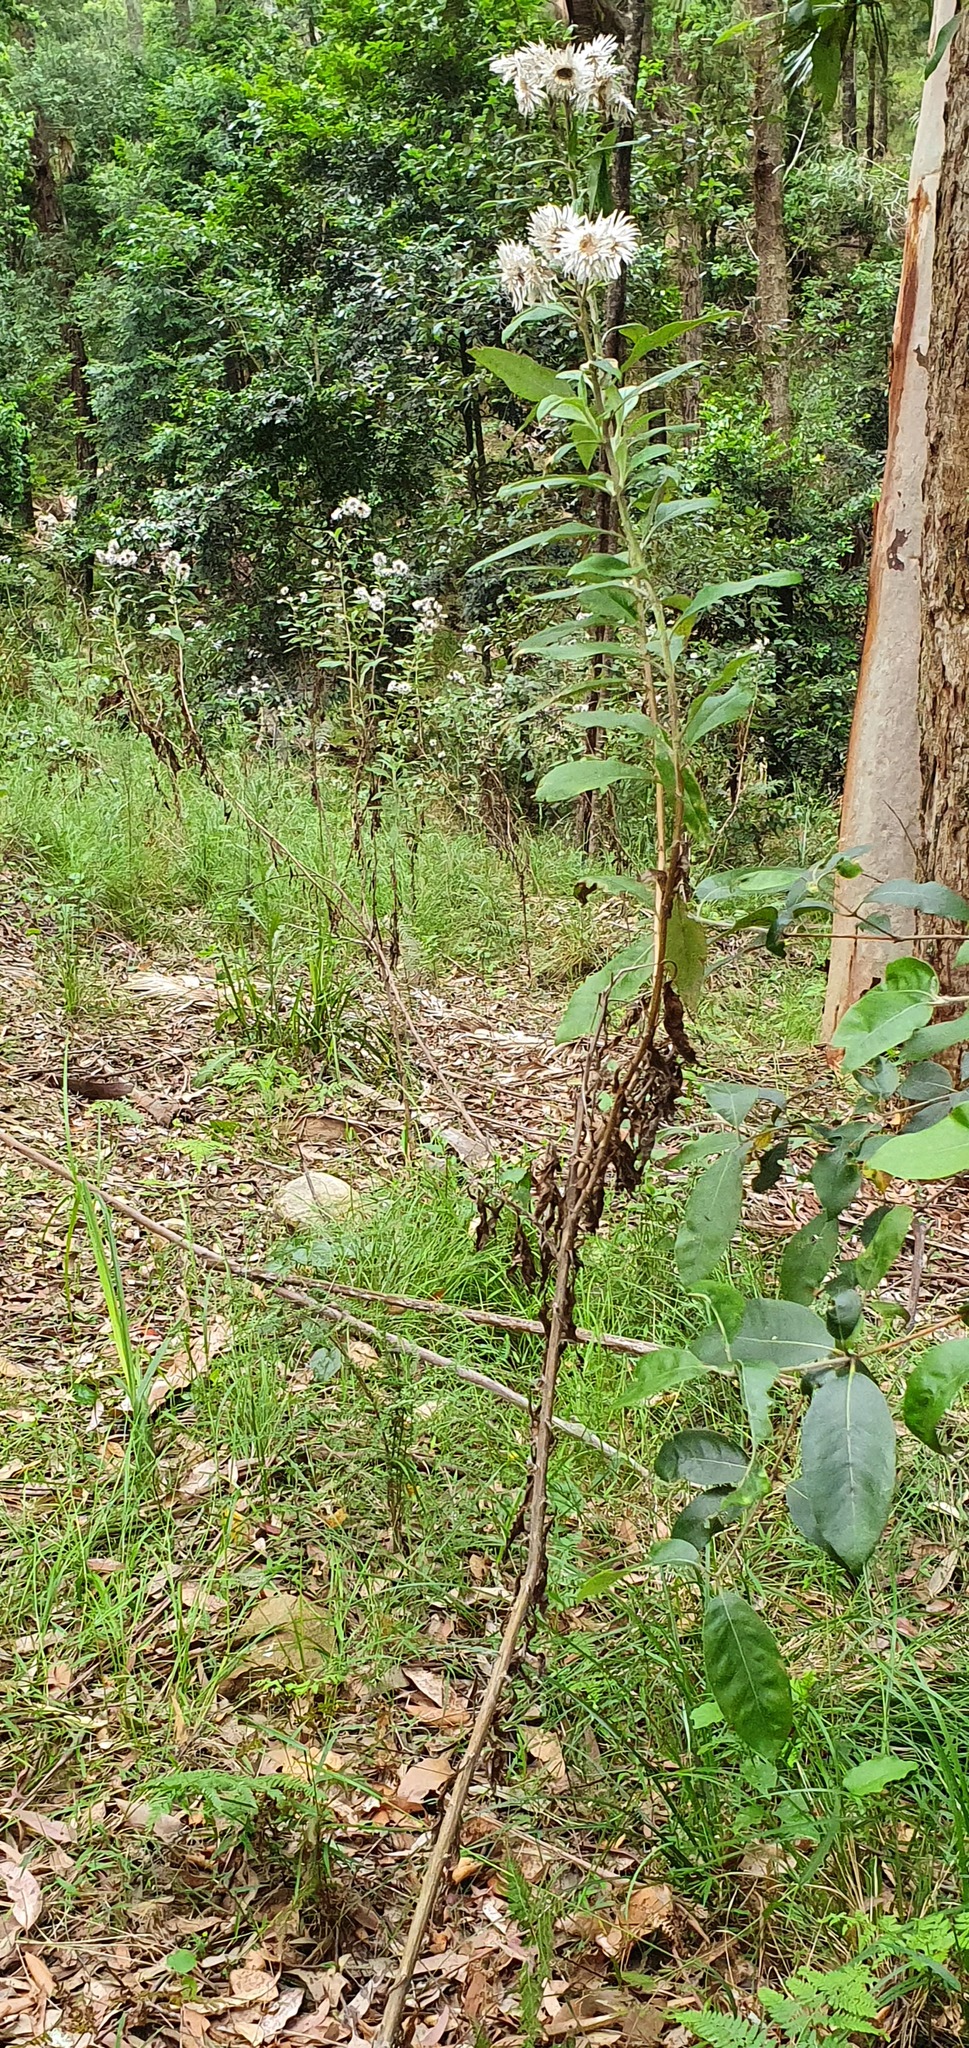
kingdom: Plantae
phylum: Tracheophyta
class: Magnoliopsida
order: Asterales
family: Asteraceae
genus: Leucozoma
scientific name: Leucozoma elatum
